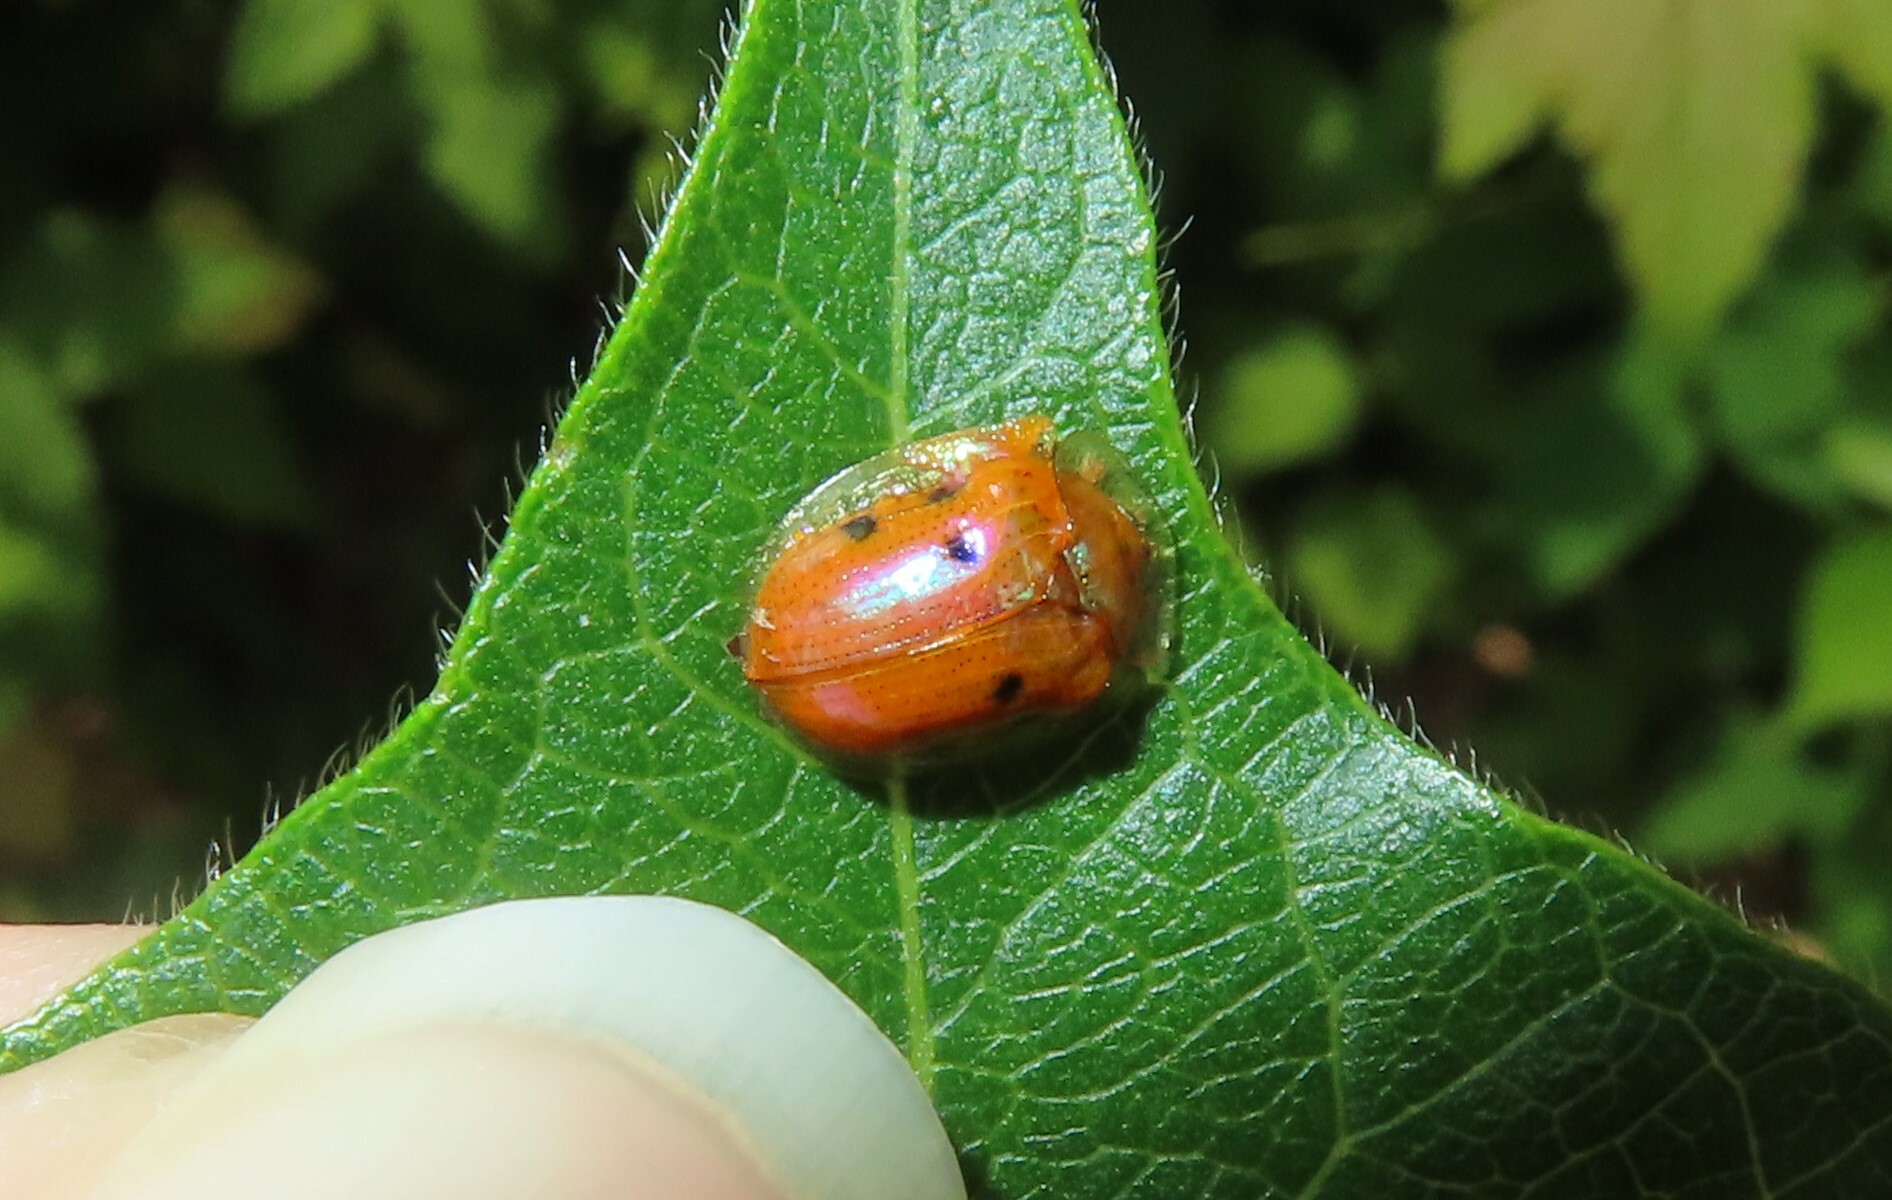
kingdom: Animalia
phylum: Arthropoda
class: Insecta
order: Coleoptera
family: Chrysomelidae
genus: Charidotella
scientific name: Charidotella sexpunctata
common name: Golden tortoise beetle
